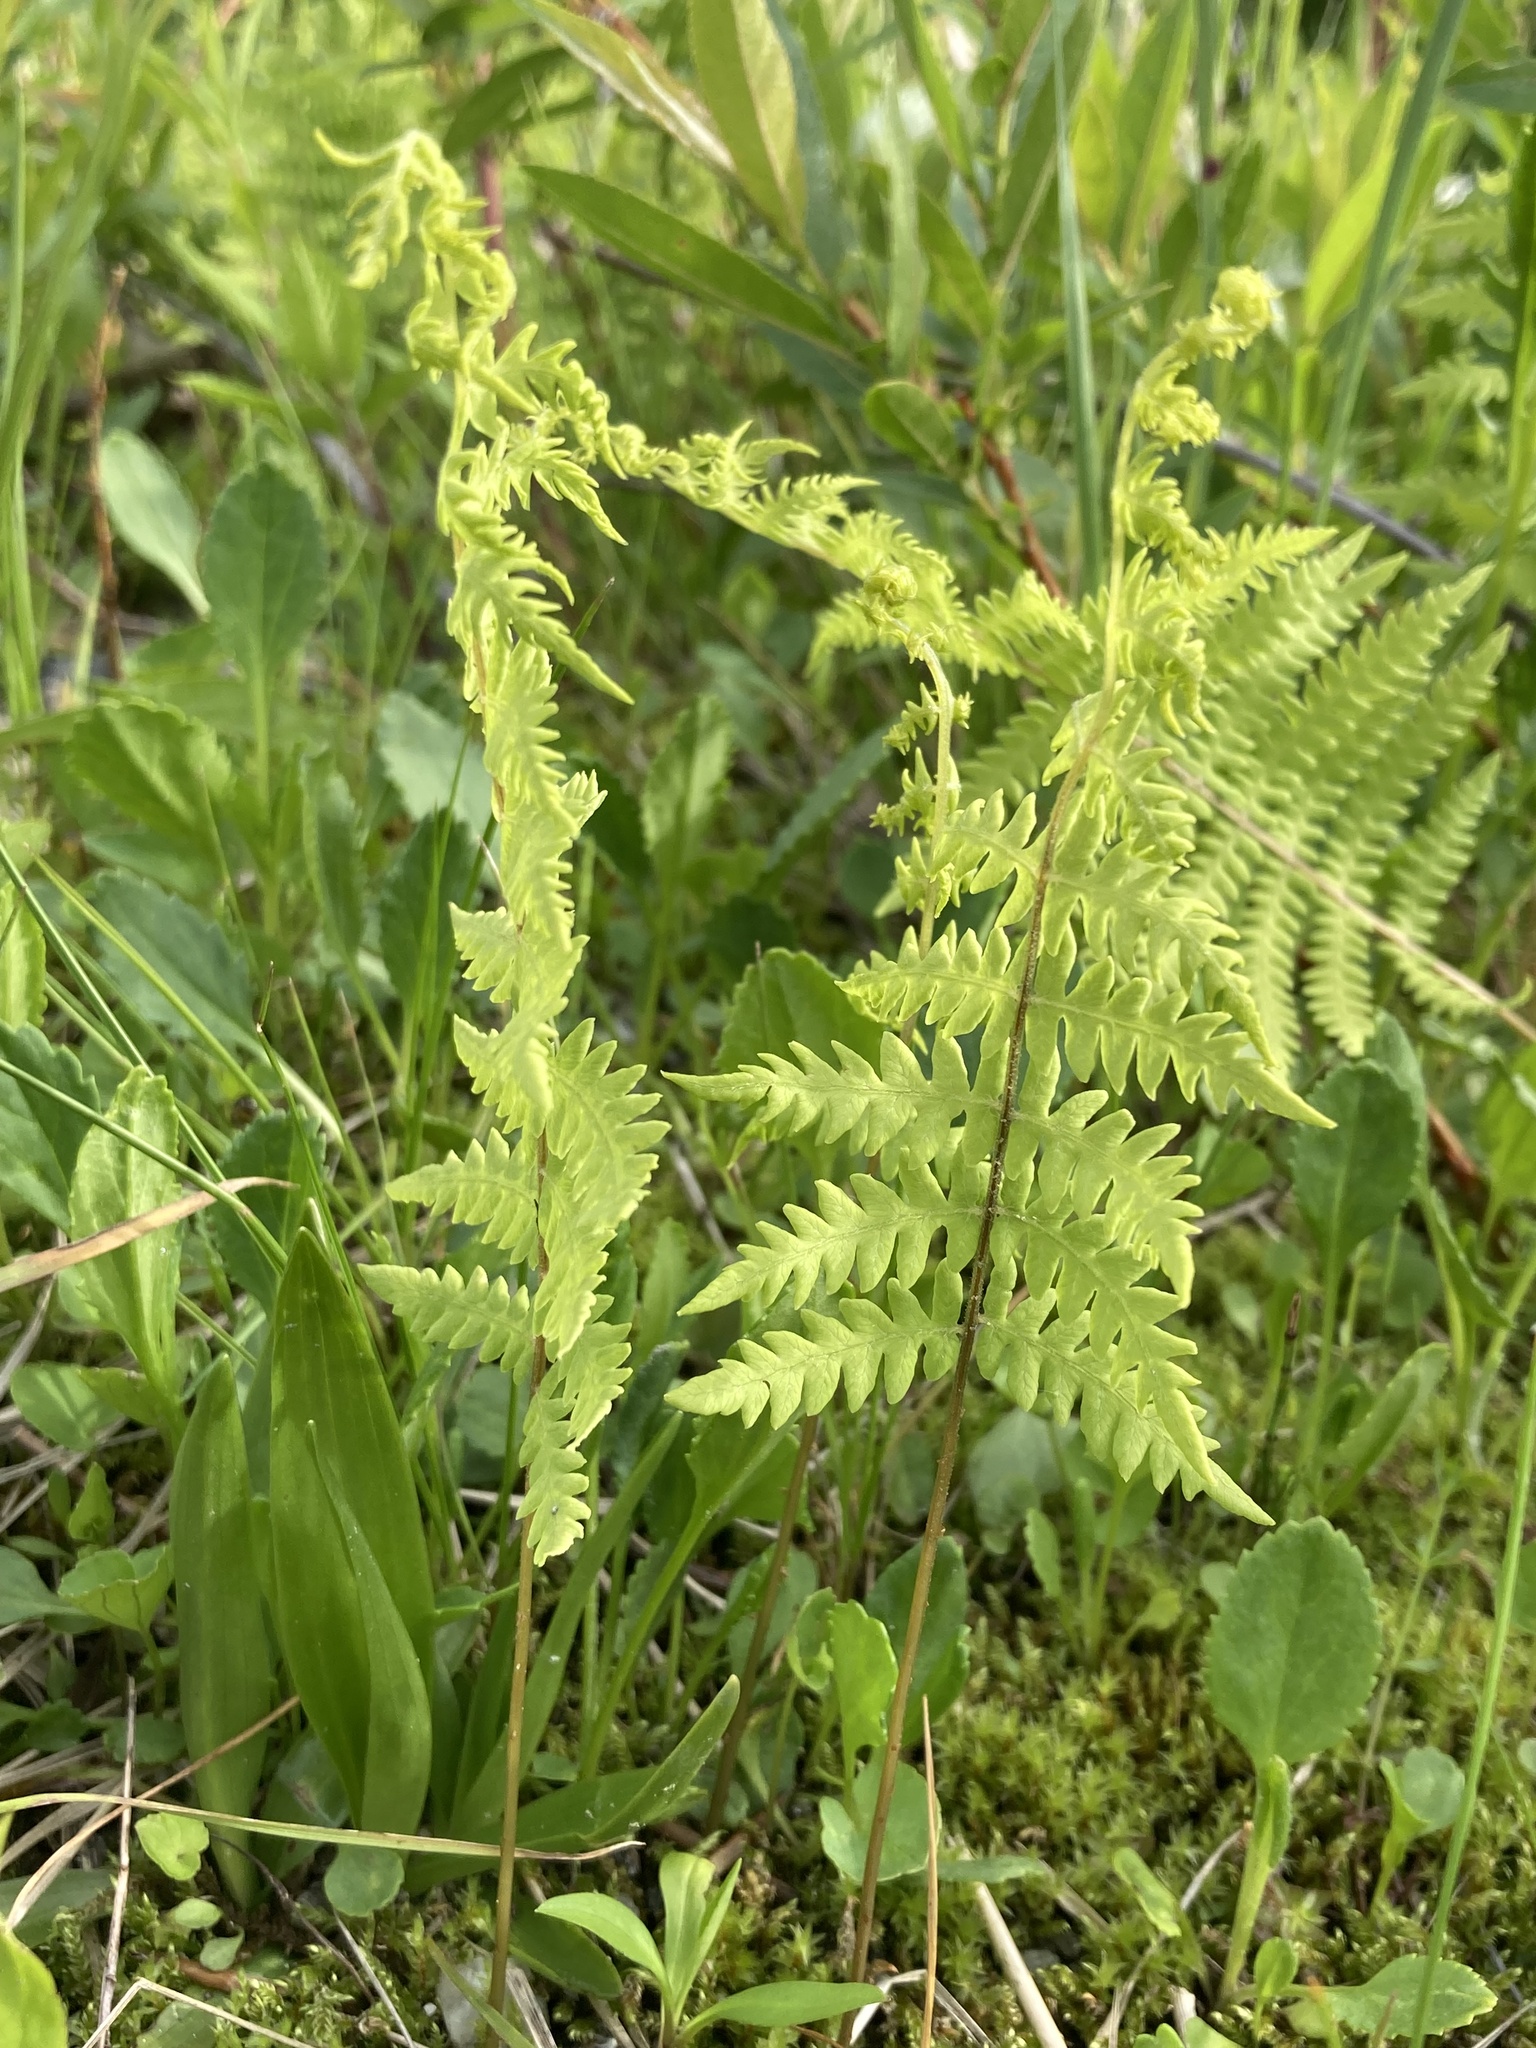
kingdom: Plantae
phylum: Tracheophyta
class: Polypodiopsida
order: Polypodiales
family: Thelypteridaceae
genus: Thelypteris
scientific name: Thelypteris palustris
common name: Marsh fern
